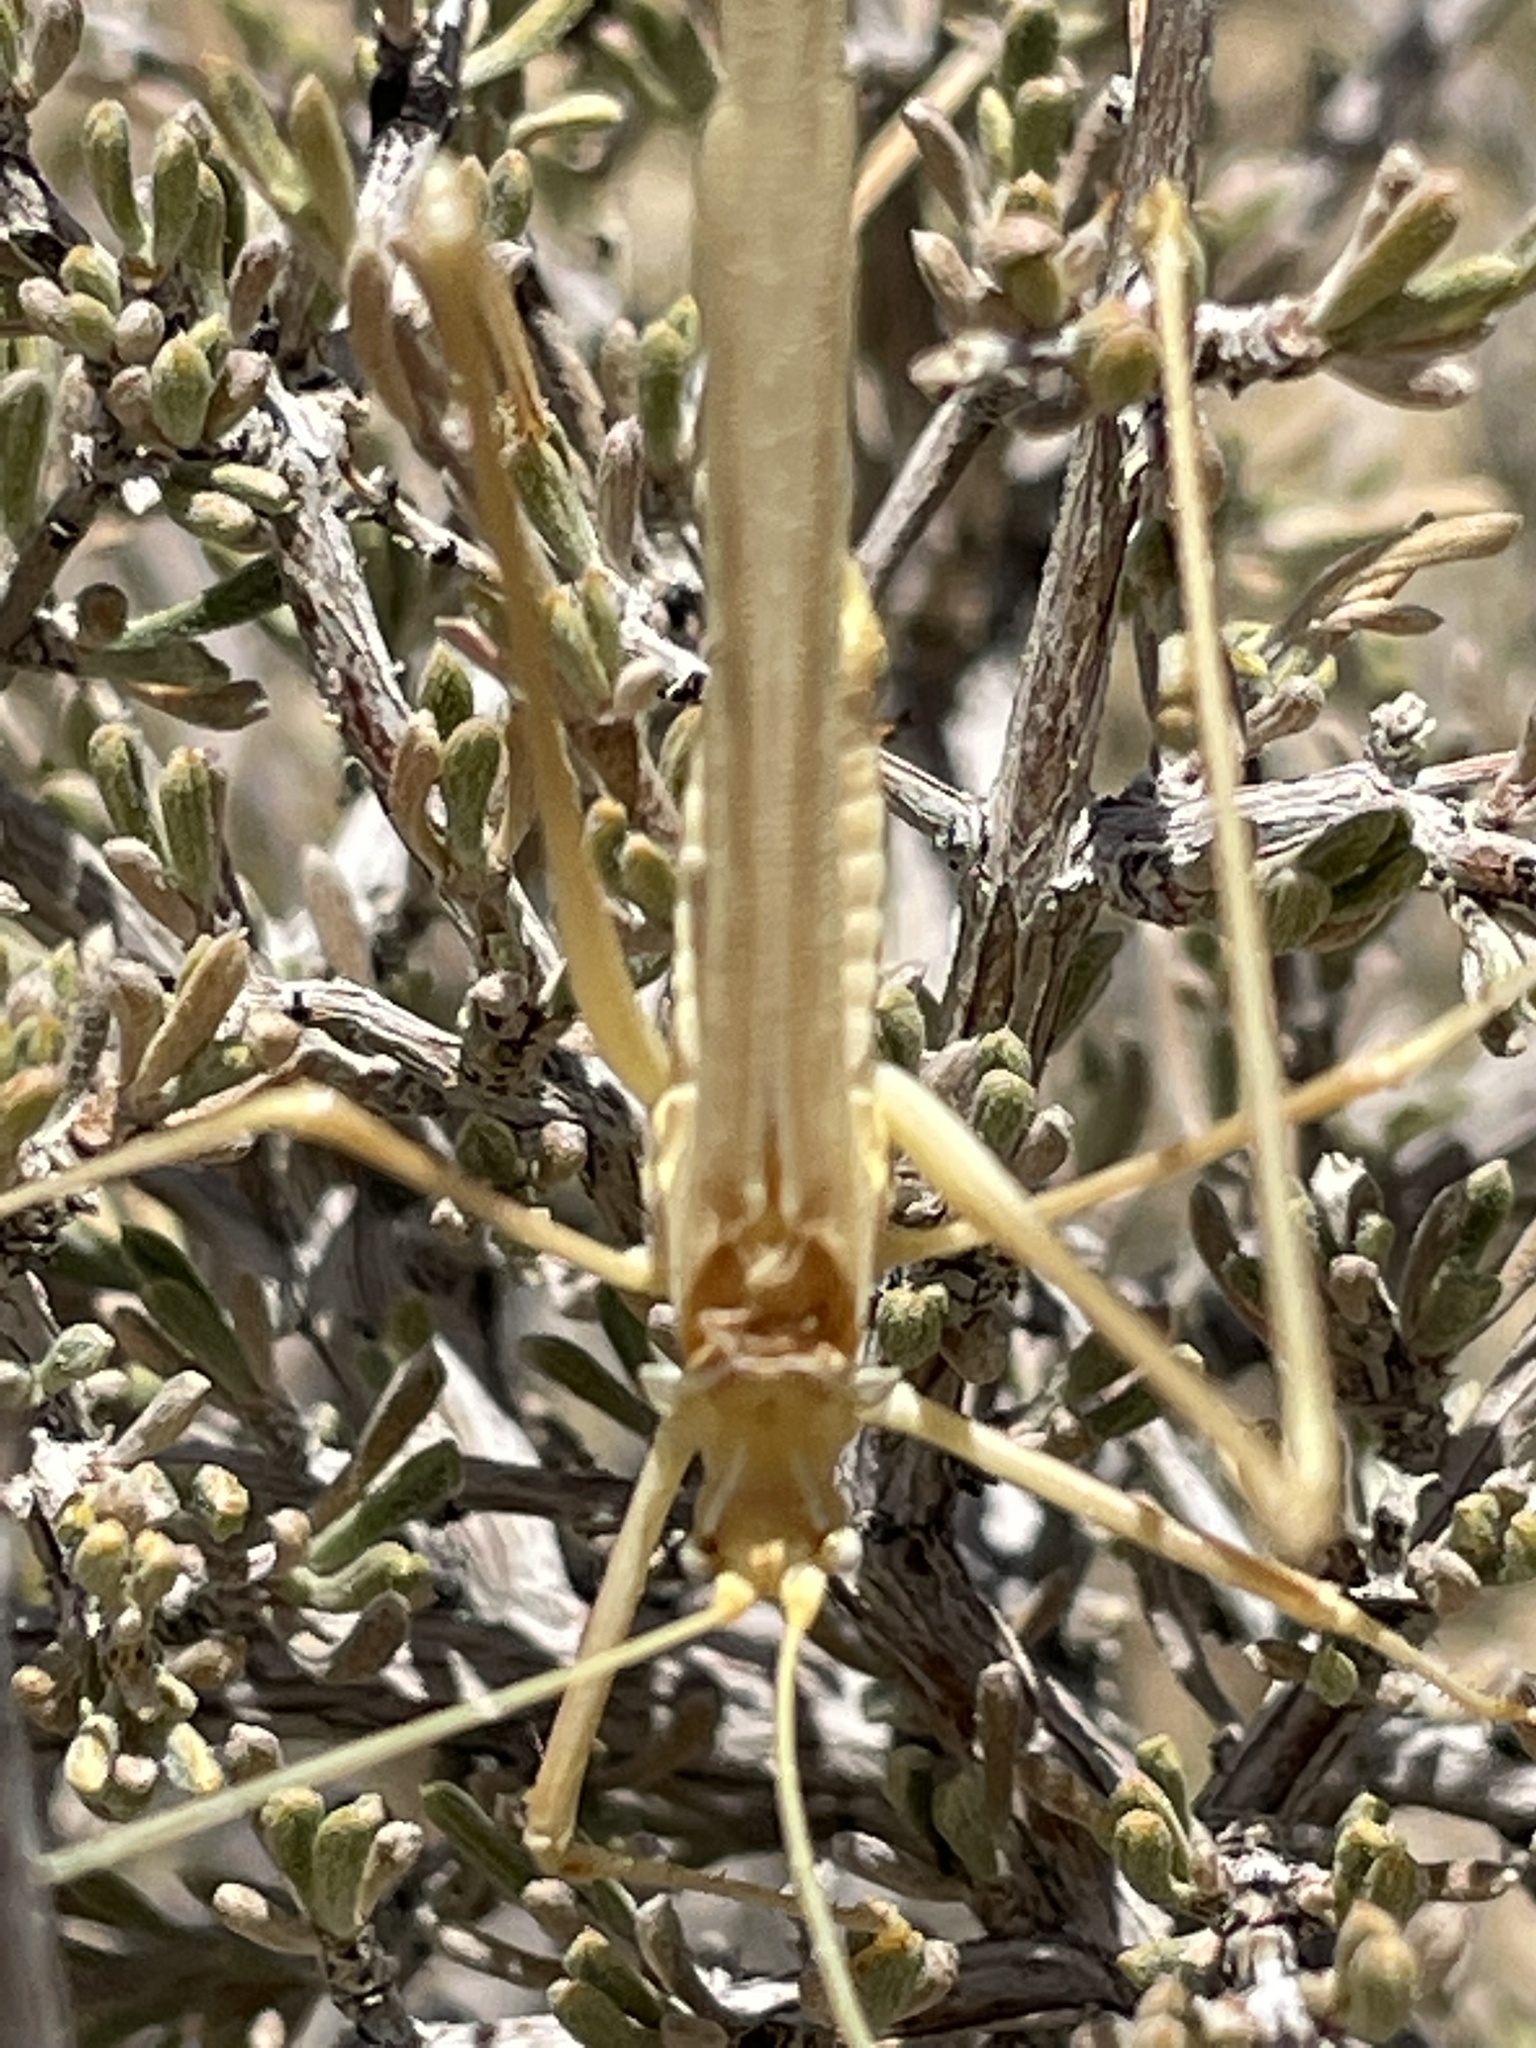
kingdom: Animalia
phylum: Arthropoda
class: Insecta
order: Orthoptera
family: Tettigoniidae
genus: Arethaea
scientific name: Arethaea brevicauda
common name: Short-tail thread-legged katydid
